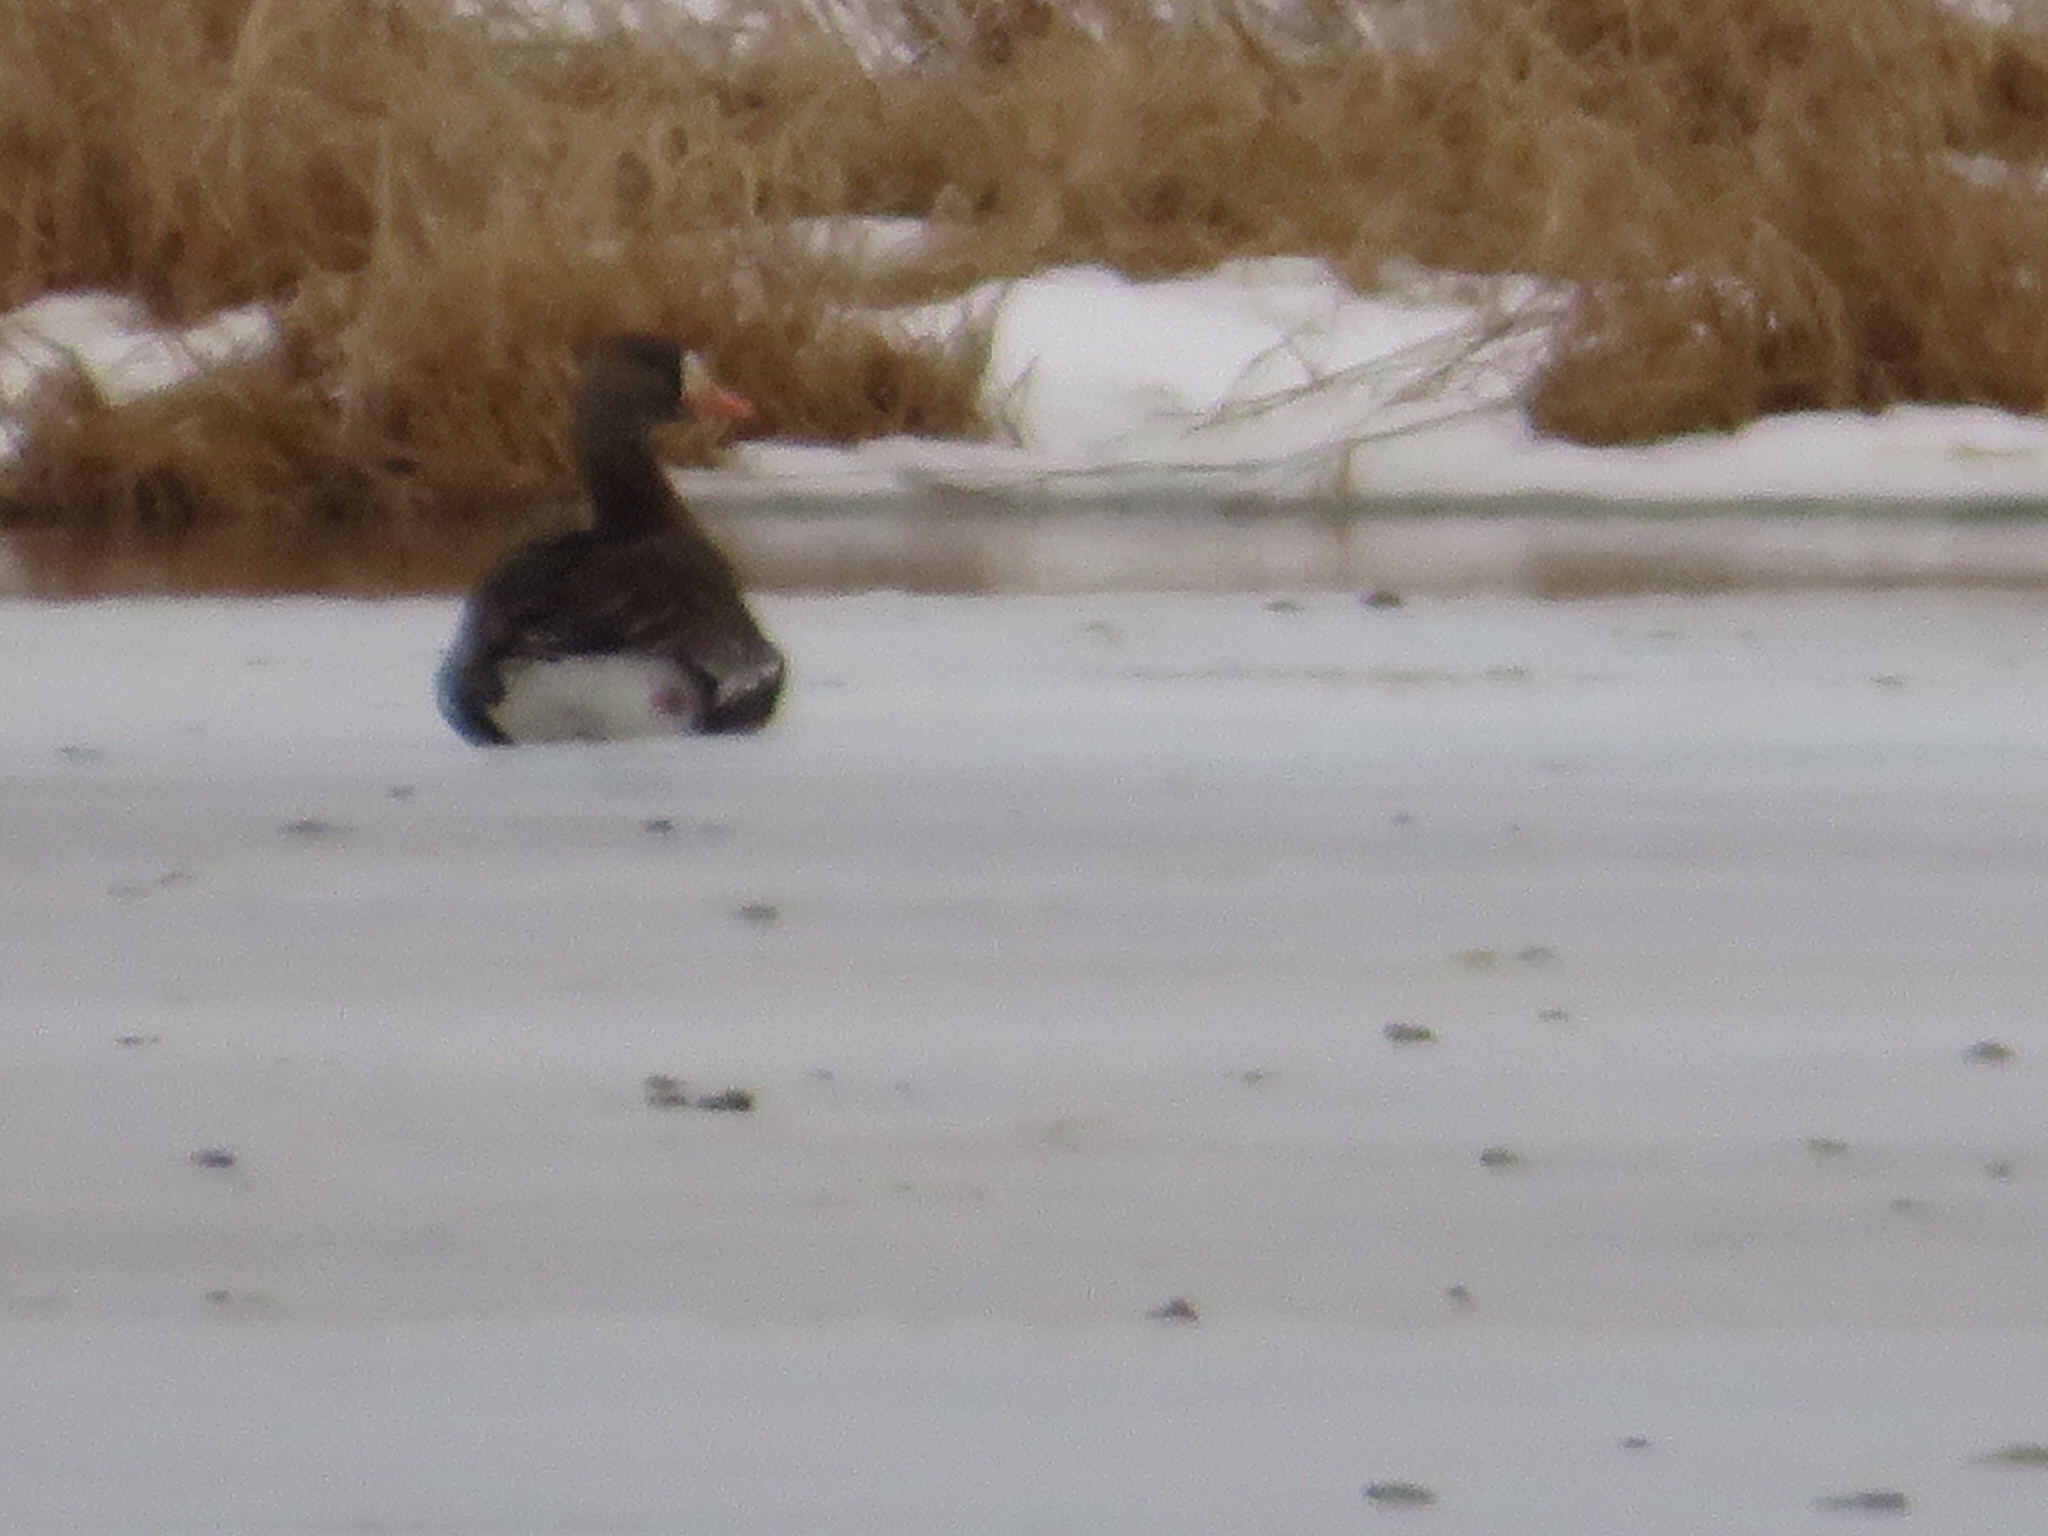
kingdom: Animalia
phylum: Chordata
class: Aves
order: Anseriformes
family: Anatidae
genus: Anser
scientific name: Anser albifrons
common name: Greater white-fronted goose
